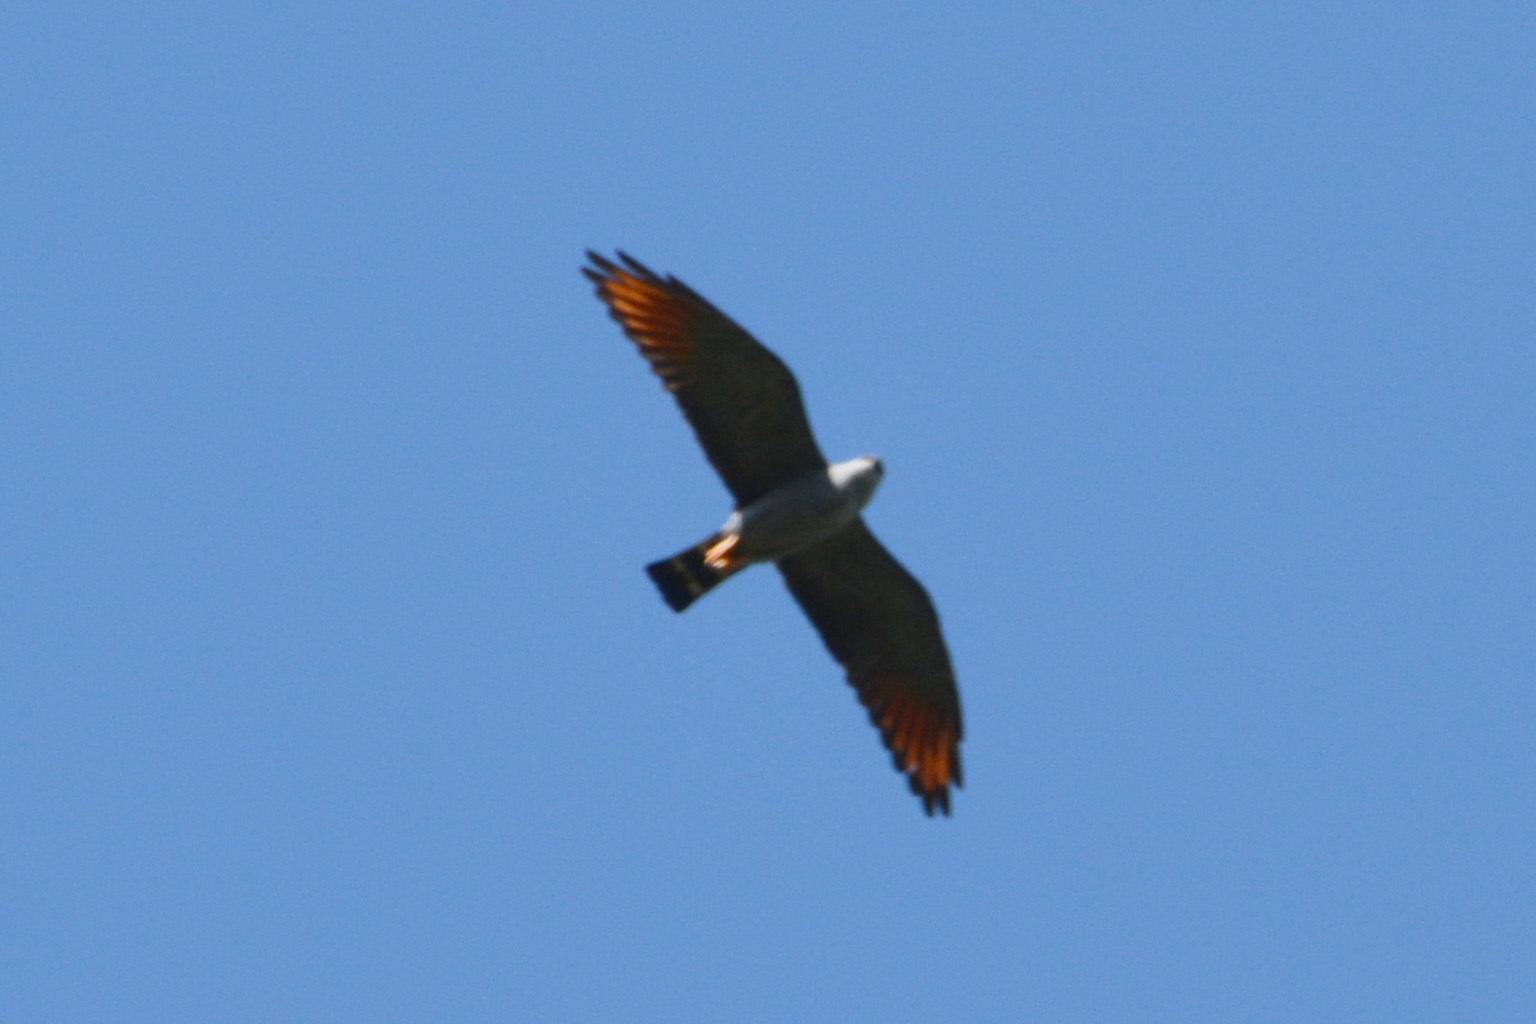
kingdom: Animalia
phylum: Chordata
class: Aves
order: Accipitriformes
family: Accipitridae
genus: Ictinia
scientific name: Ictinia plumbea
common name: Plumbeous kite
